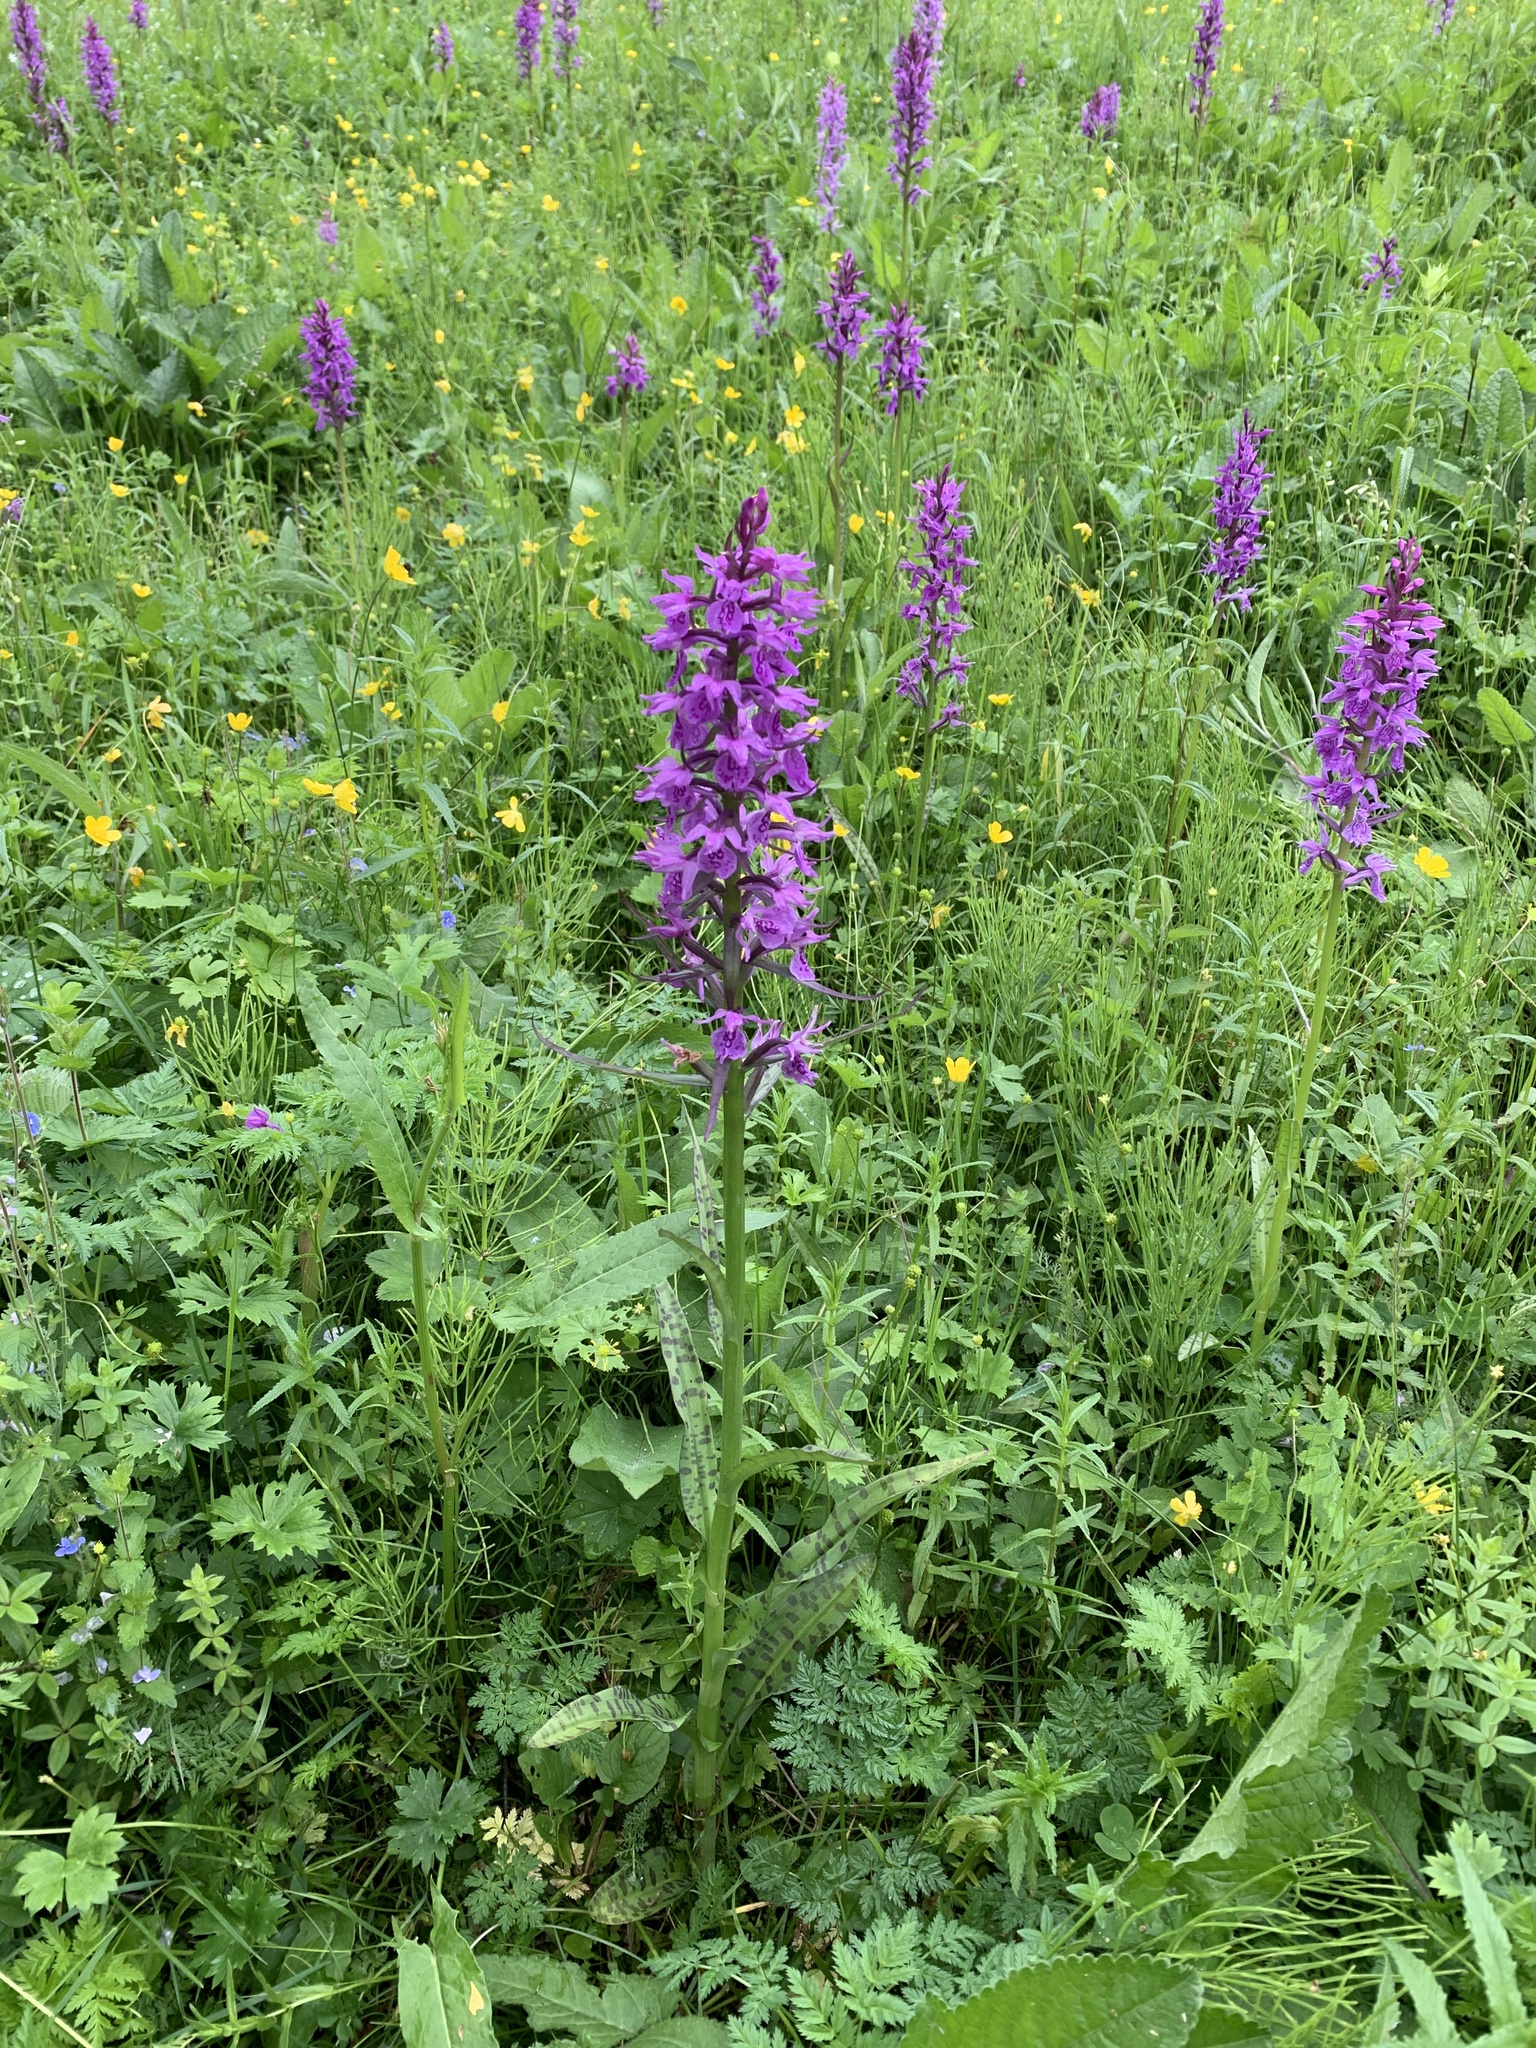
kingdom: Plantae
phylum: Tracheophyta
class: Liliopsida
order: Asparagales
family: Orchidaceae
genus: Dactylorhiza
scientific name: Dactylorhiza urvilleana
